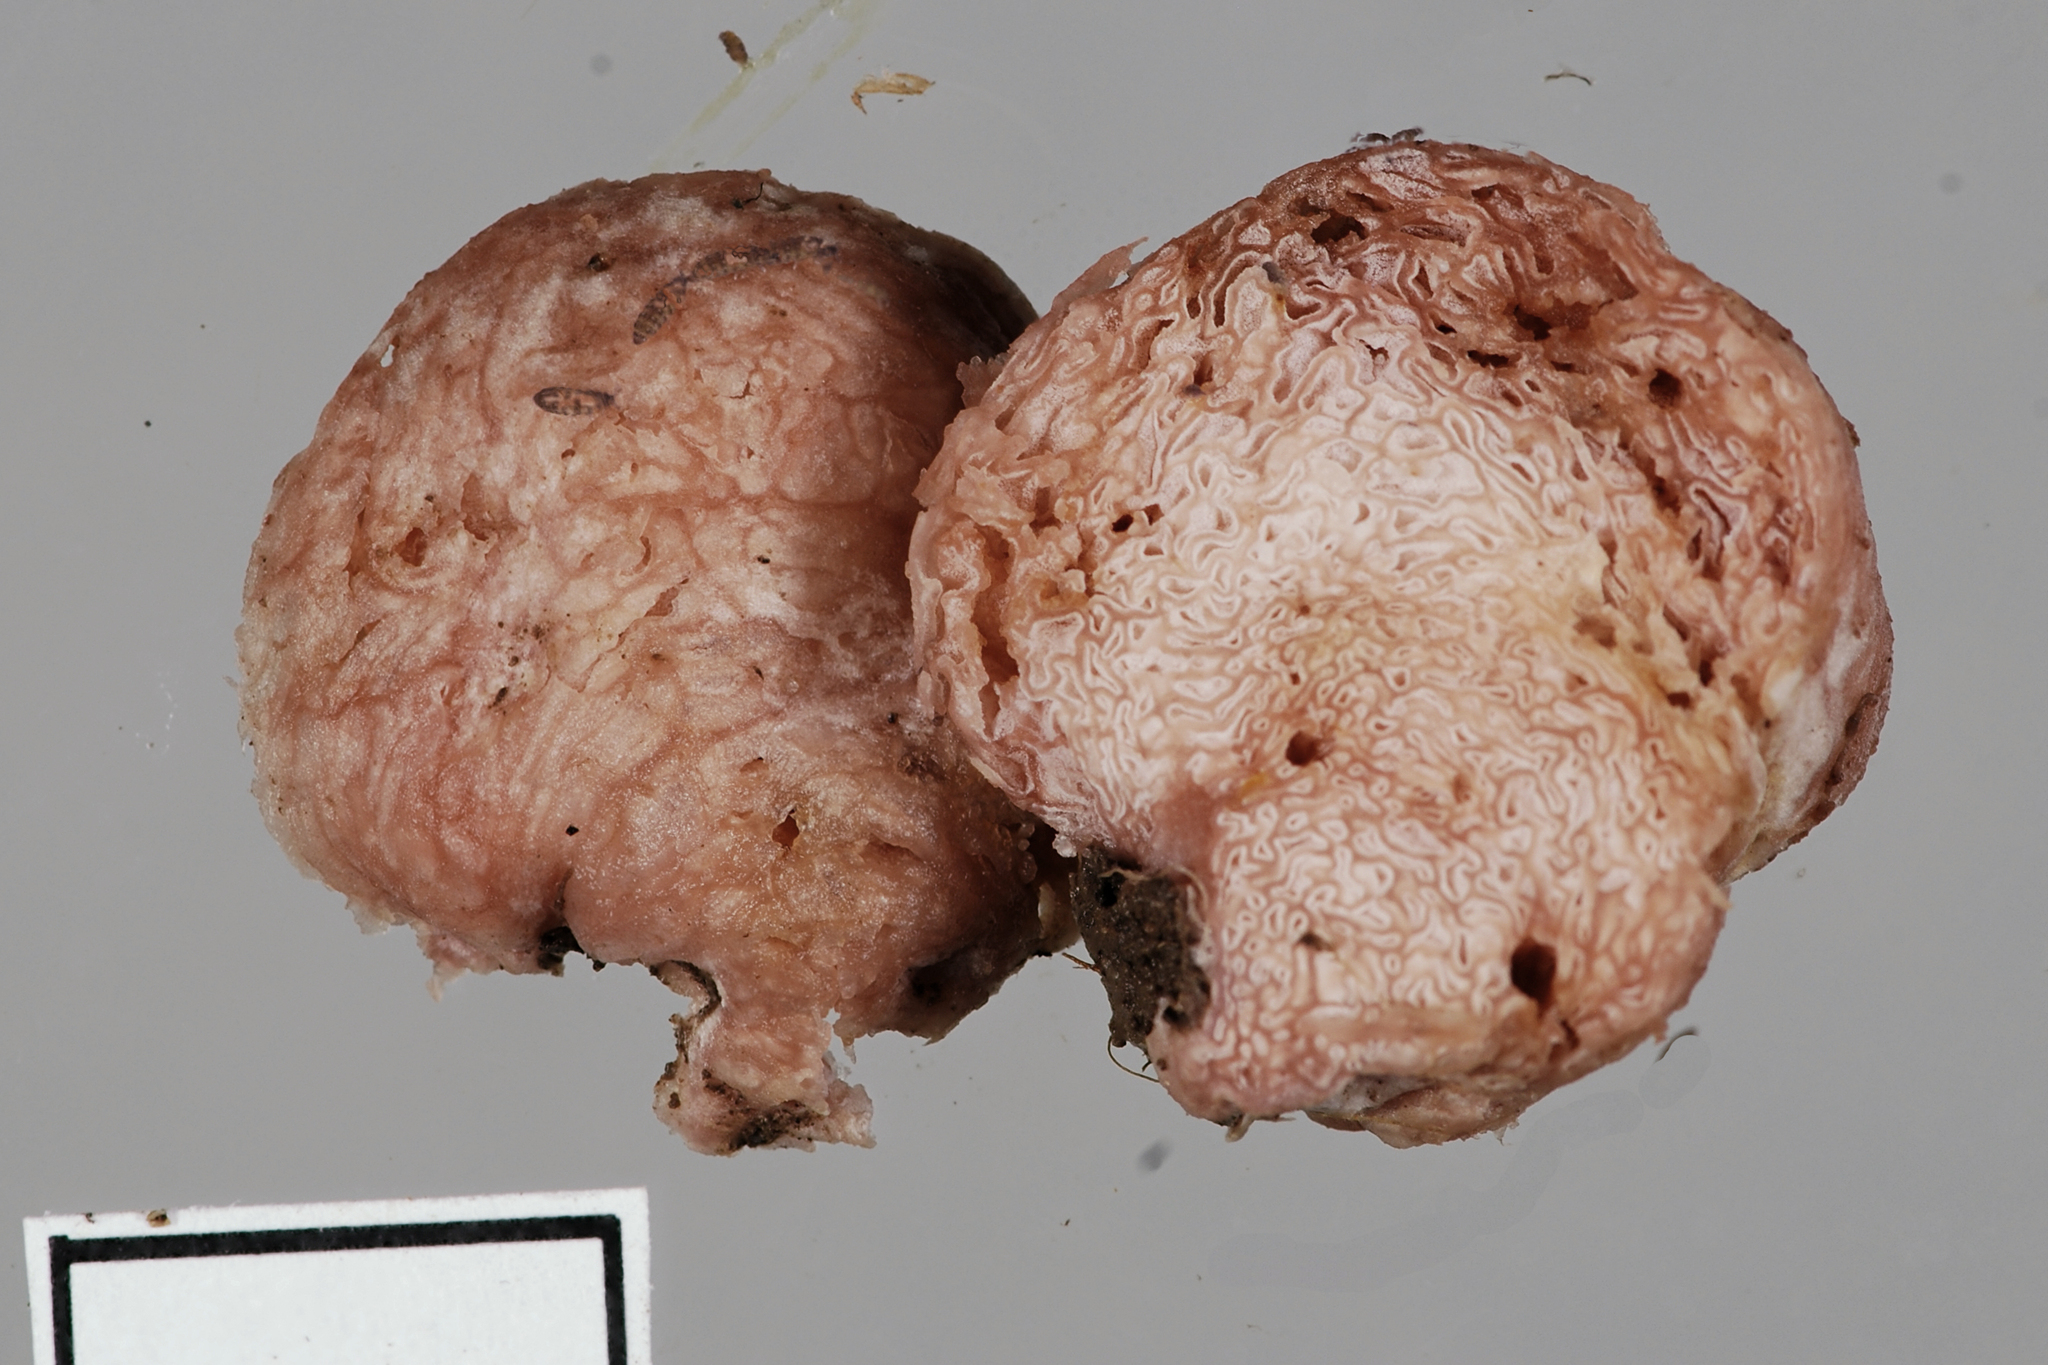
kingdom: Fungi
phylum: Basidiomycota
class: Agaricomycetes
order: Agaricales
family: Hydnangiaceae
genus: Hydnangium
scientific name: Hydnangium carneum
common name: Flesh-pink truffle
